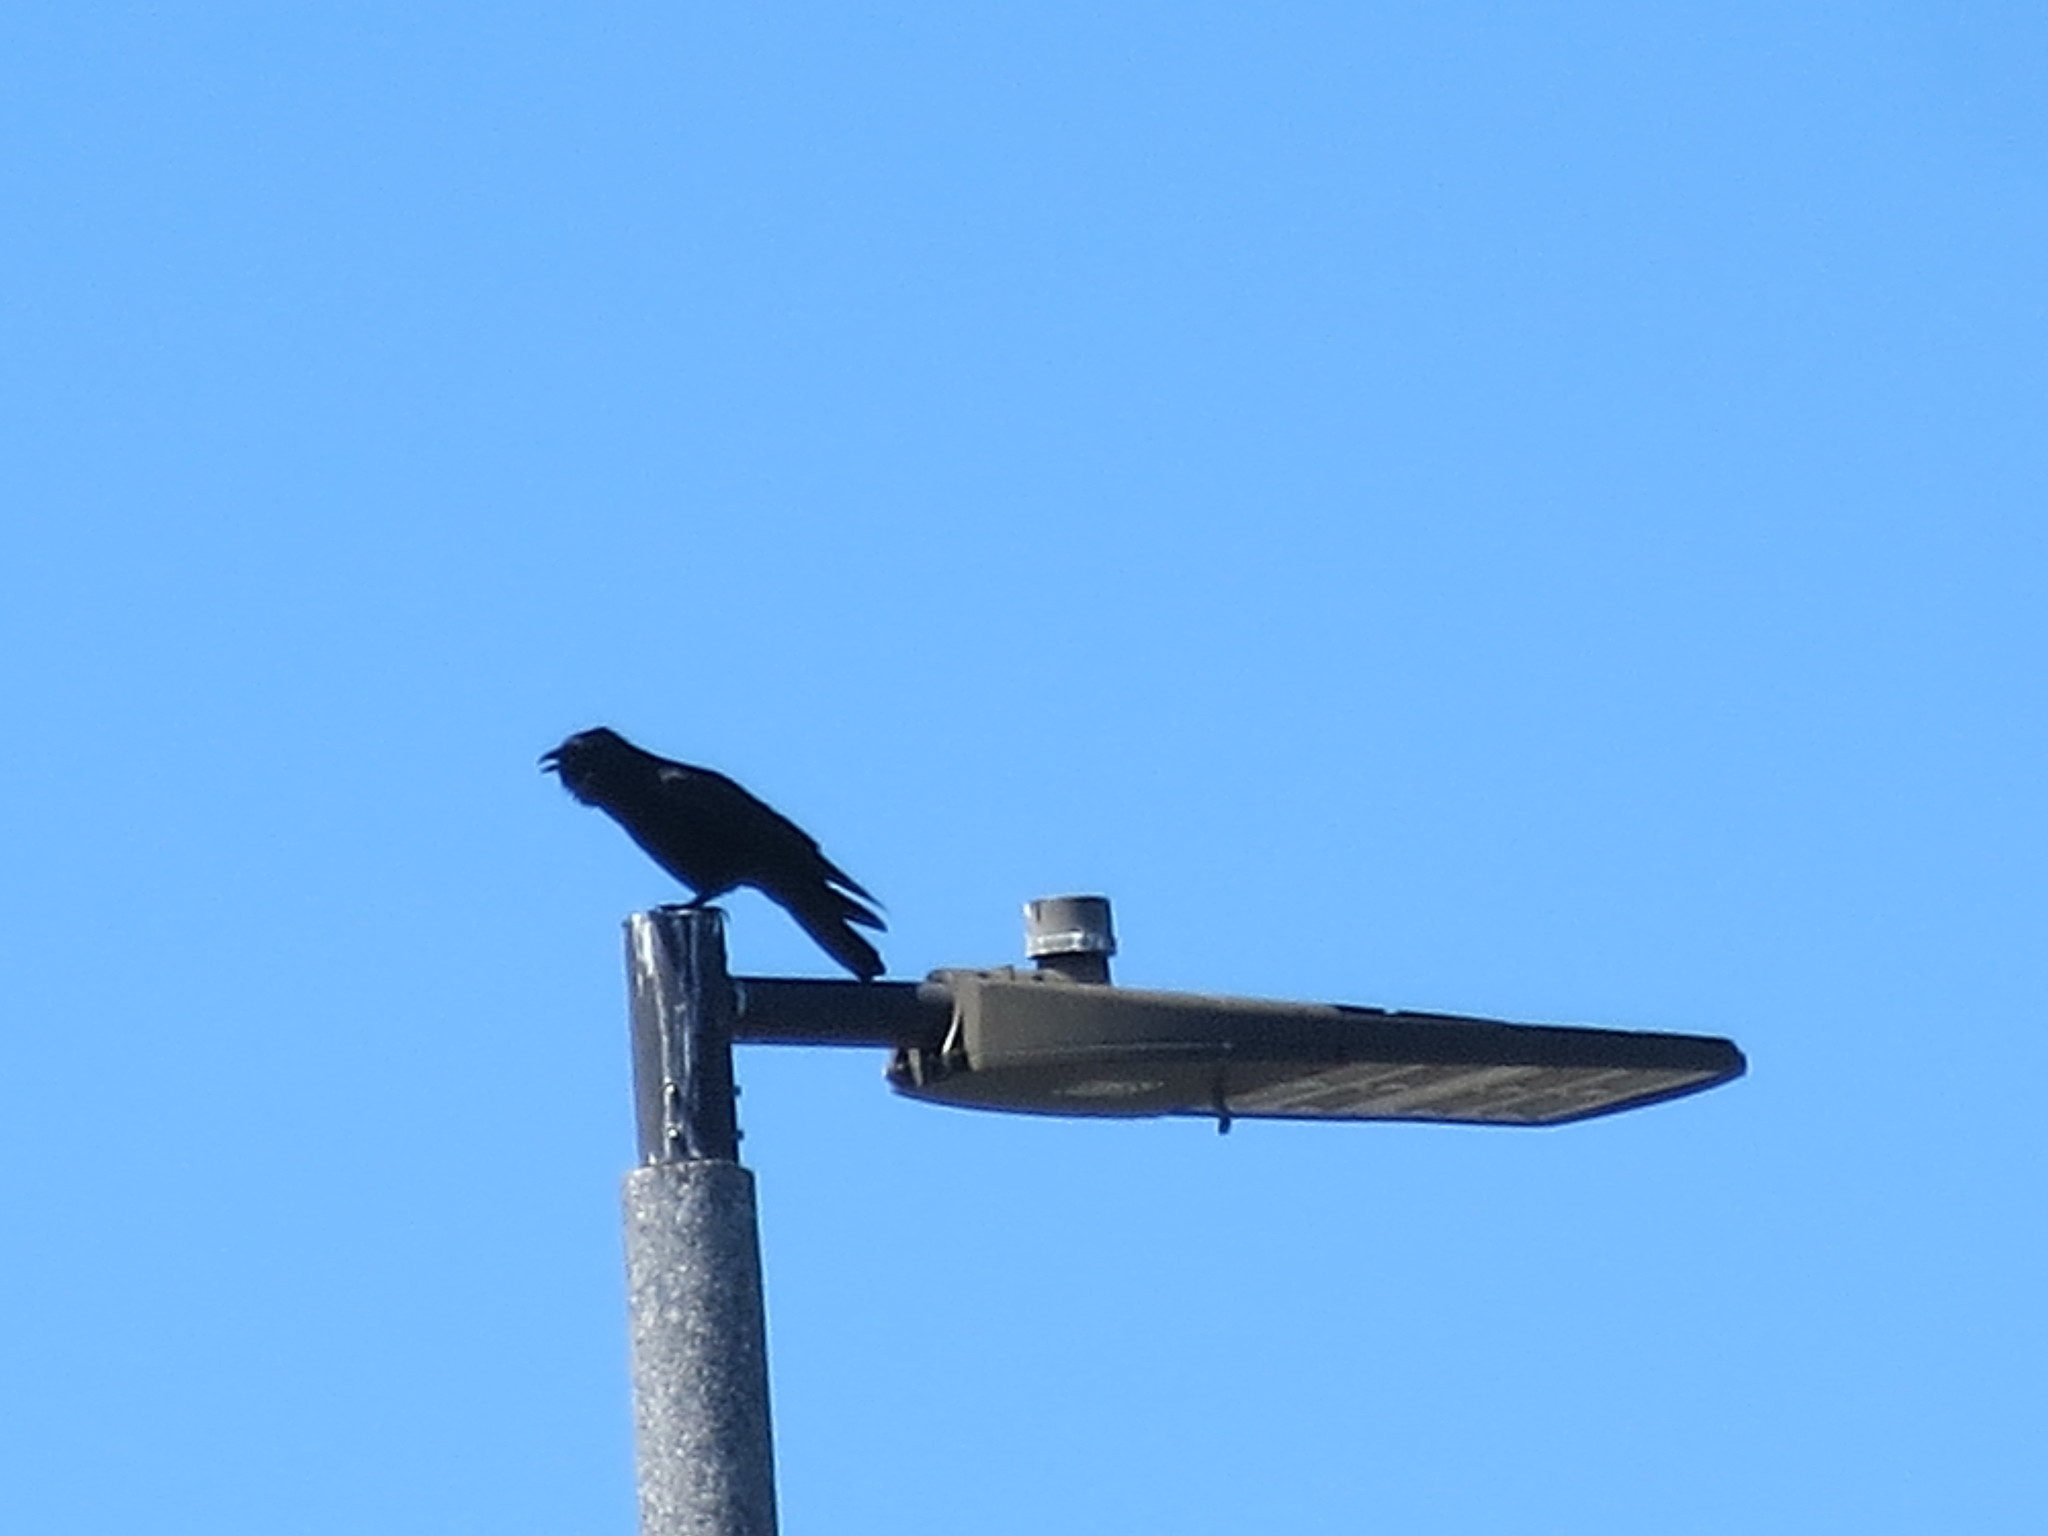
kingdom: Animalia
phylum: Chordata
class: Aves
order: Passeriformes
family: Corvidae
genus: Corvus
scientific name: Corvus ossifragus
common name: Fish crow
